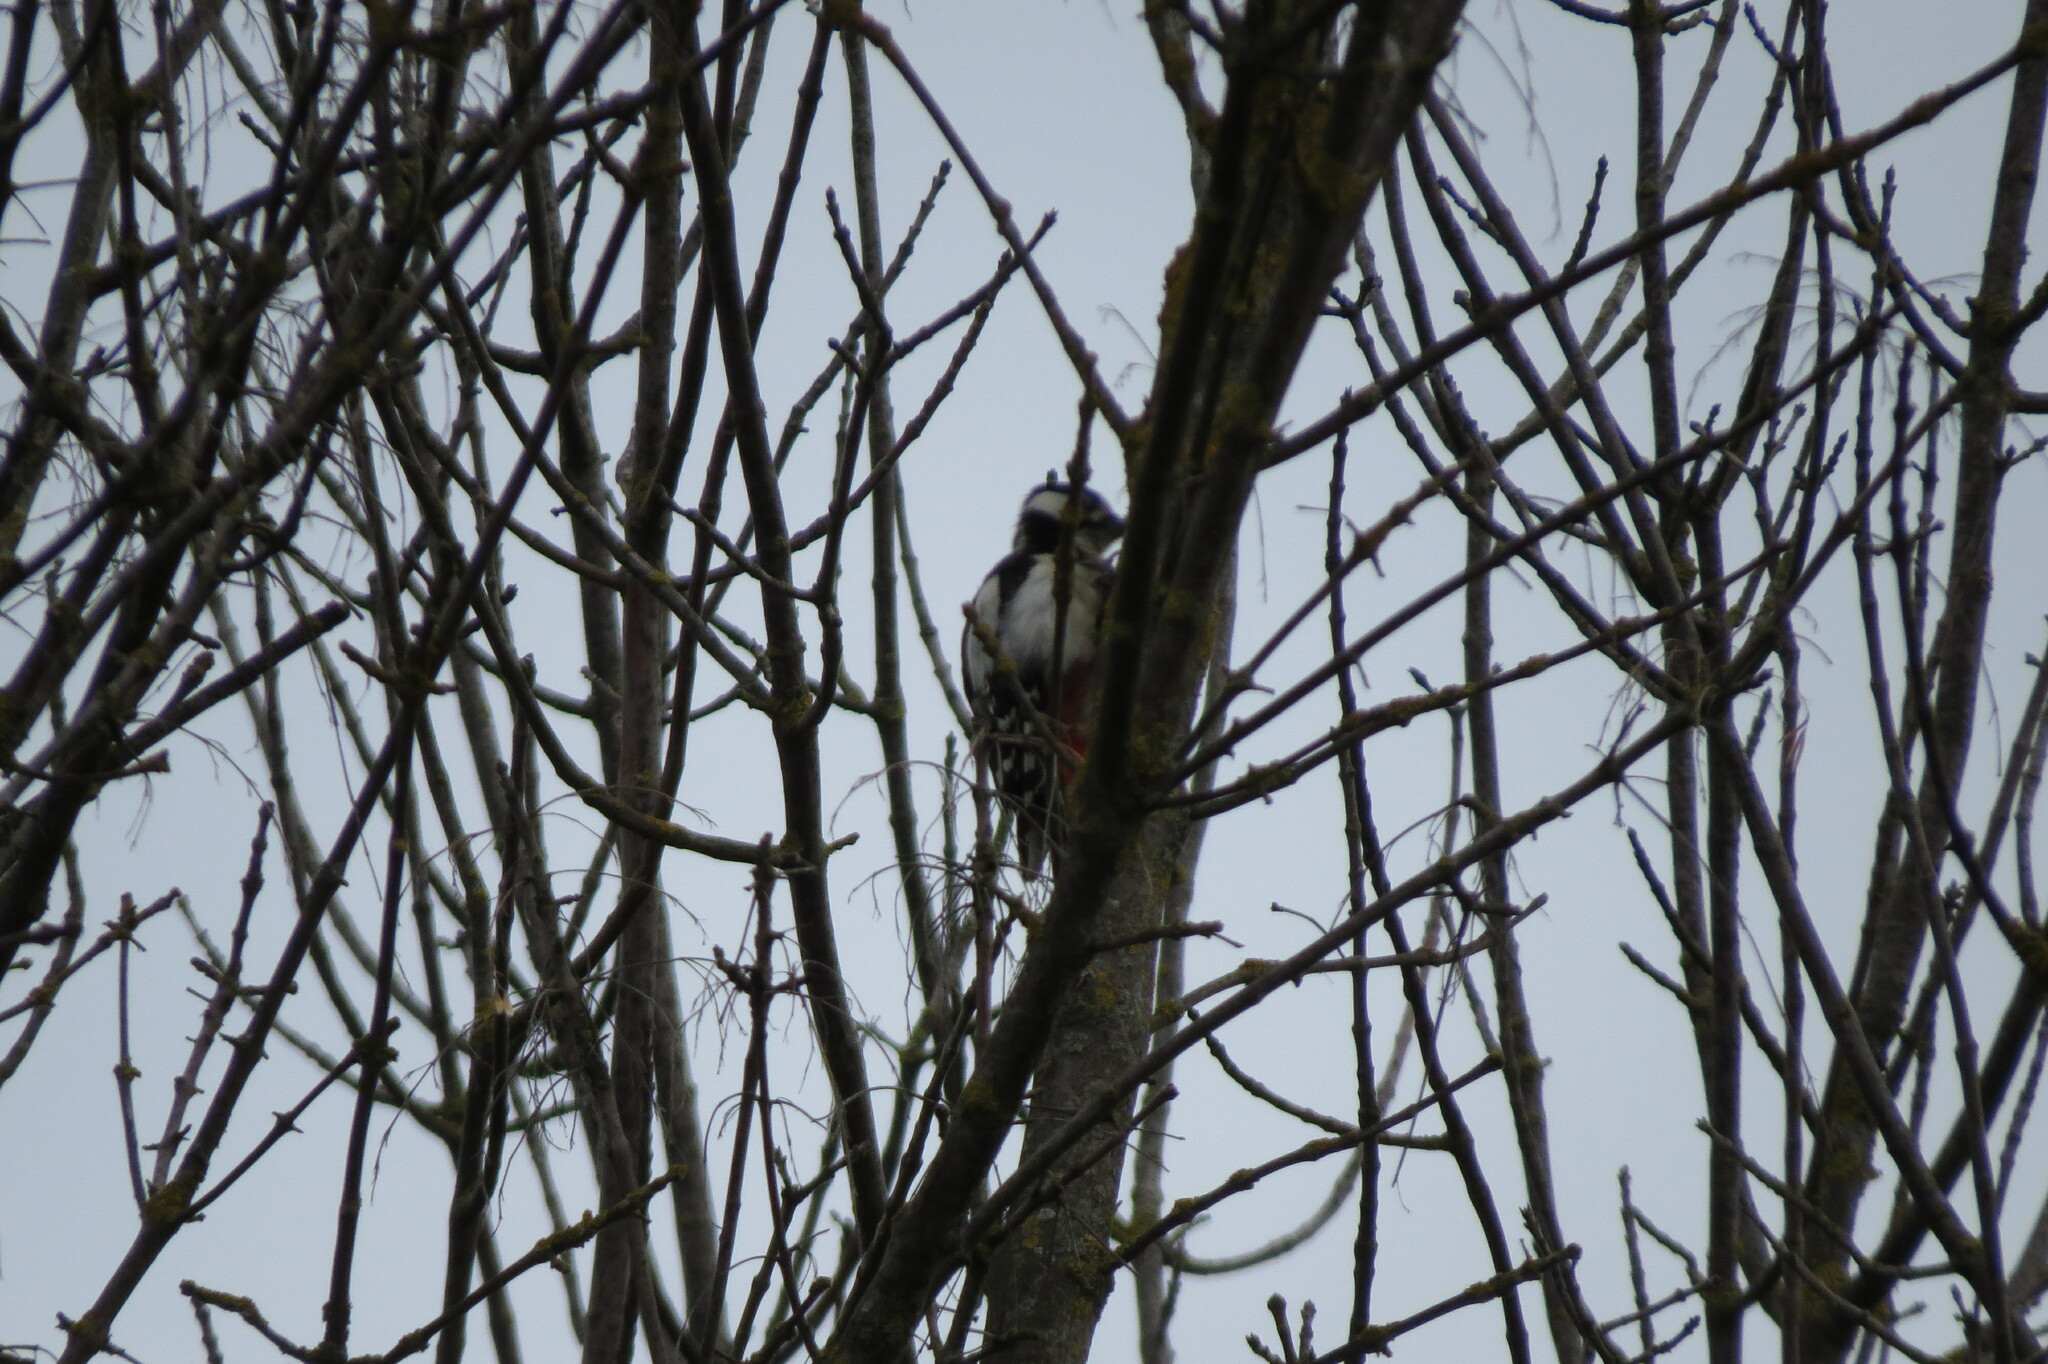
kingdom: Animalia
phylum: Chordata
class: Aves
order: Piciformes
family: Picidae
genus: Dendrocopos
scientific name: Dendrocopos major
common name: Great spotted woodpecker
